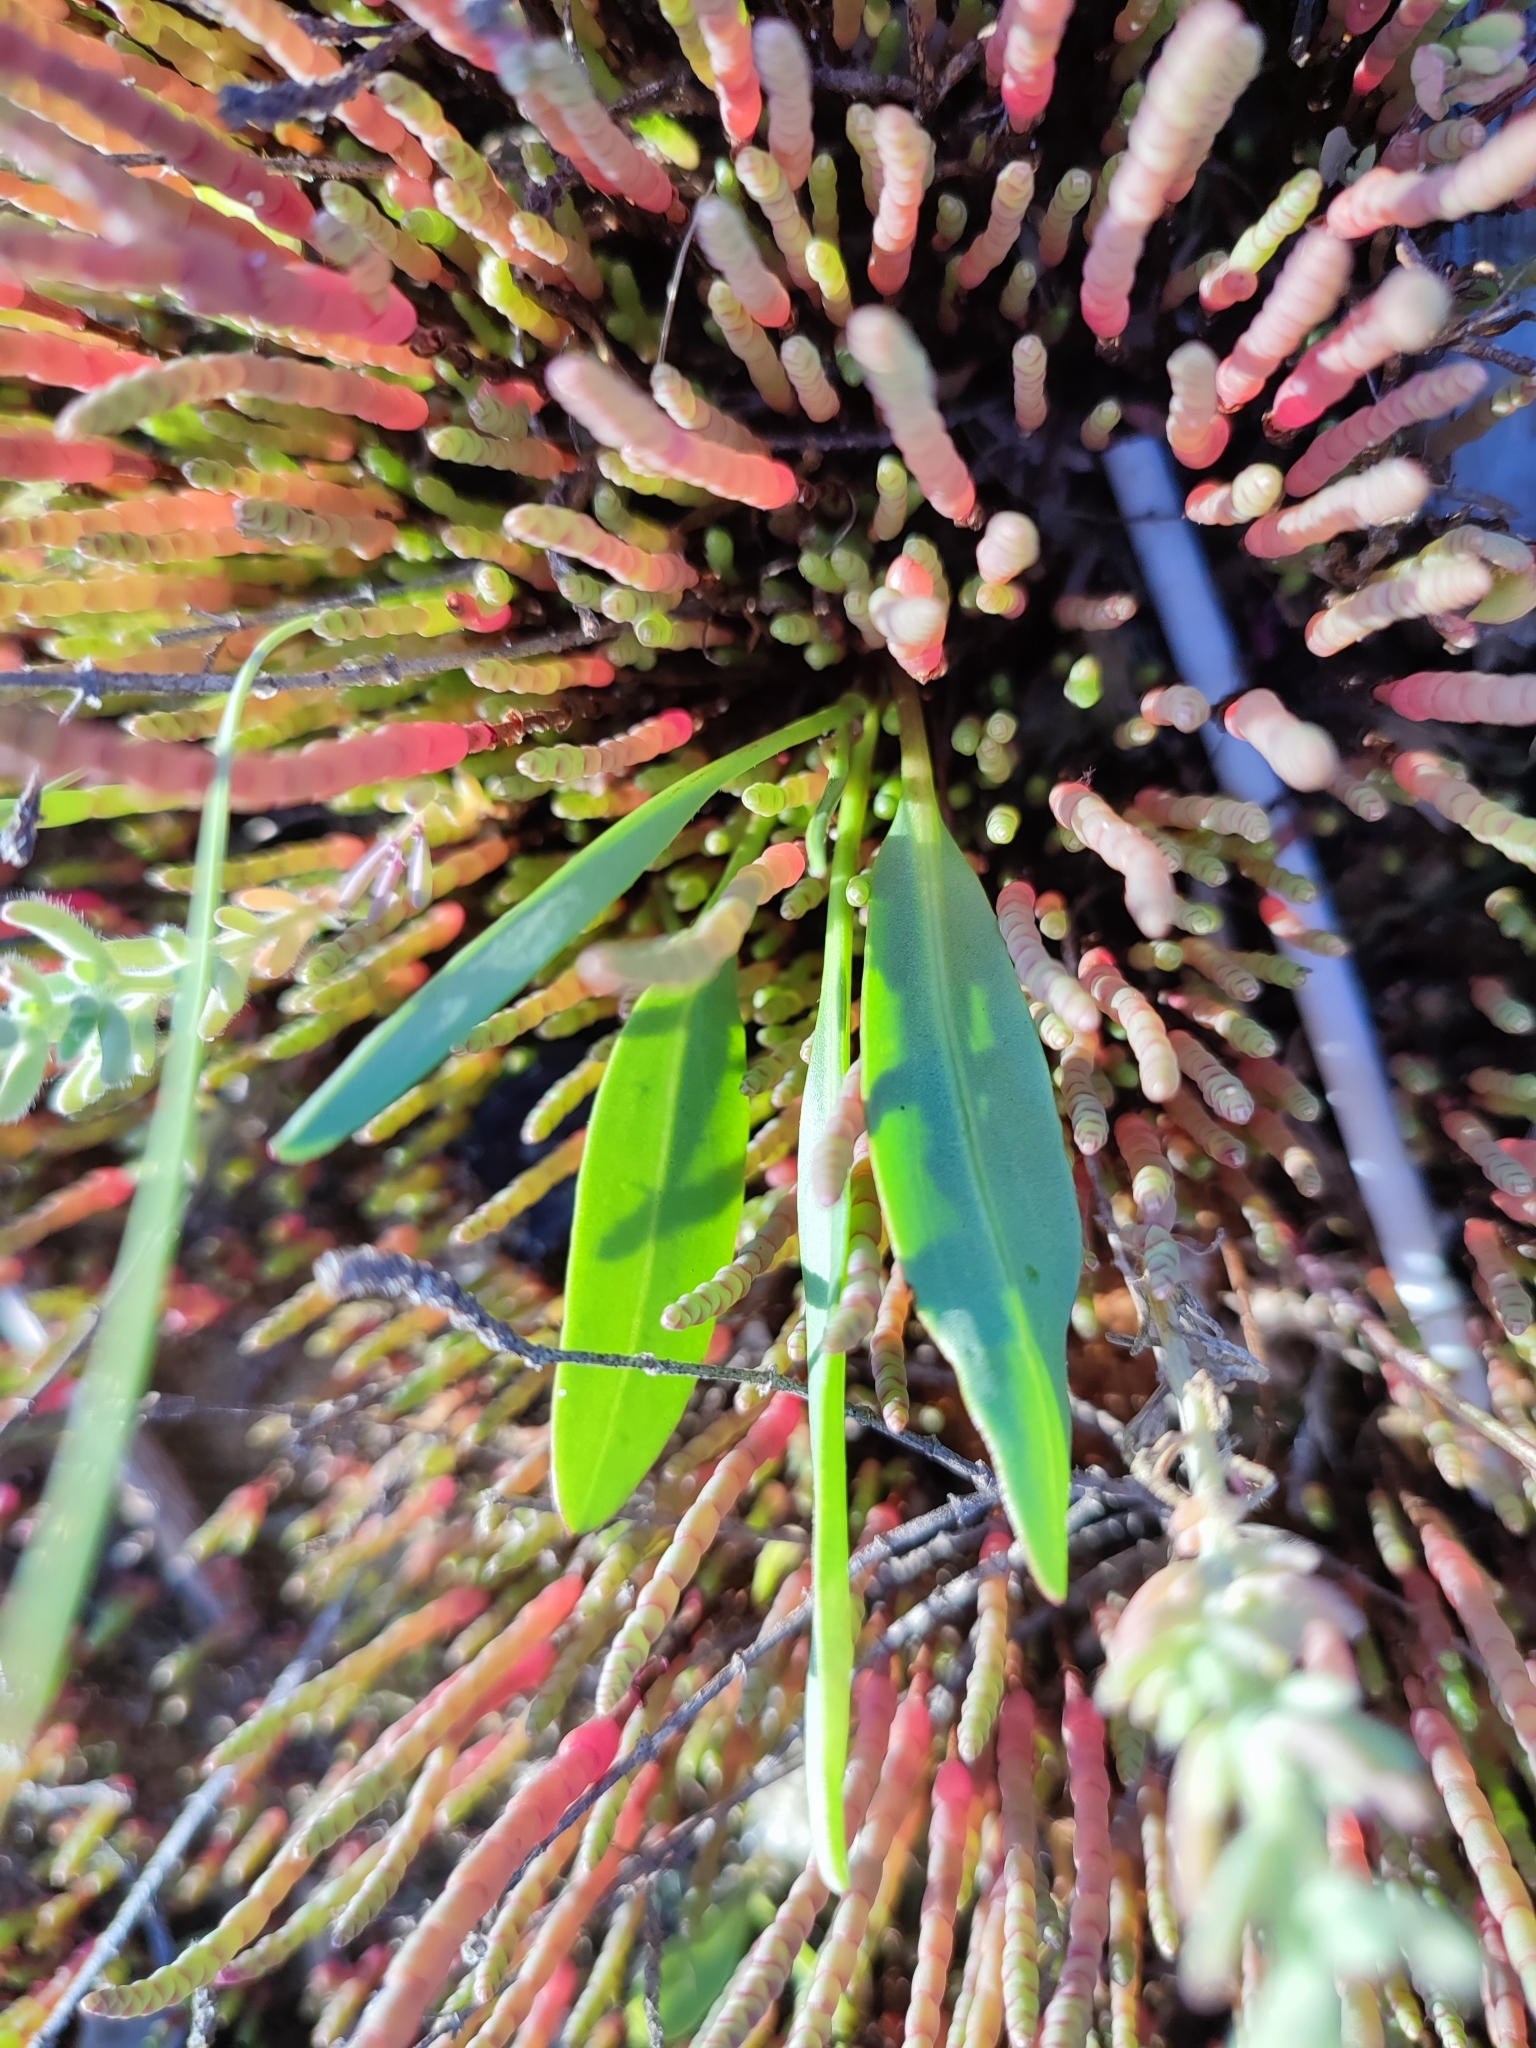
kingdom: Plantae
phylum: Tracheophyta
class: Magnoliopsida
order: Caryophyllales
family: Amaranthaceae
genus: Salicornia
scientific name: Salicornia perennans
